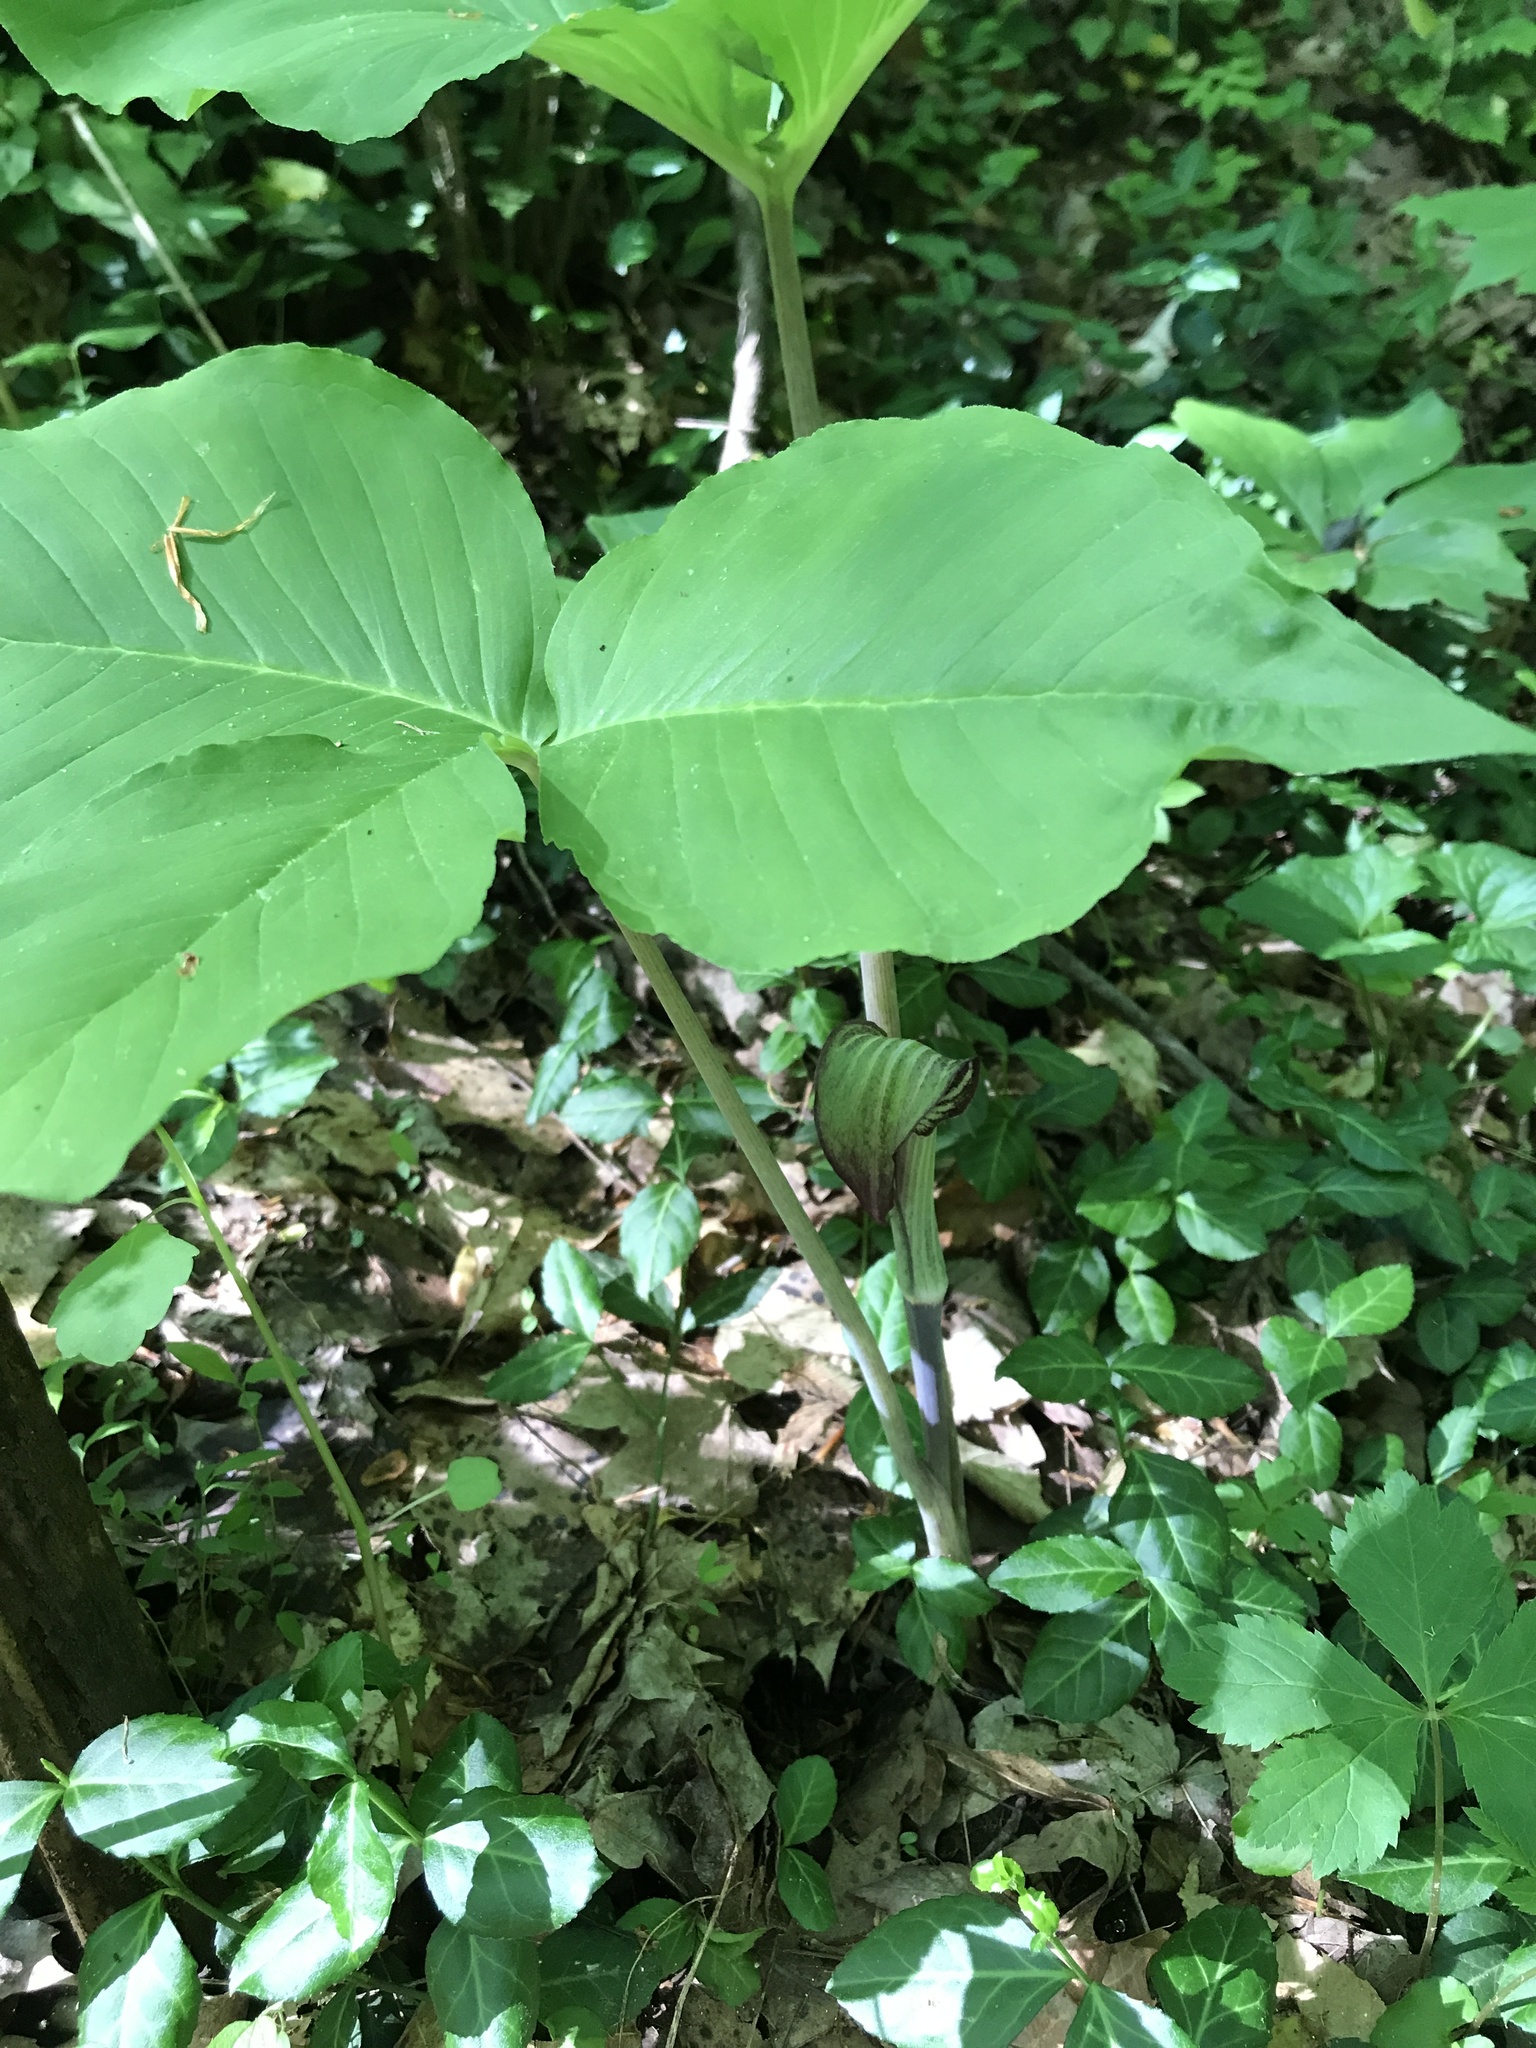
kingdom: Plantae
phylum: Tracheophyta
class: Liliopsida
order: Alismatales
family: Araceae
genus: Arisaema
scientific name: Arisaema triphyllum
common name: Jack-in-the-pulpit
